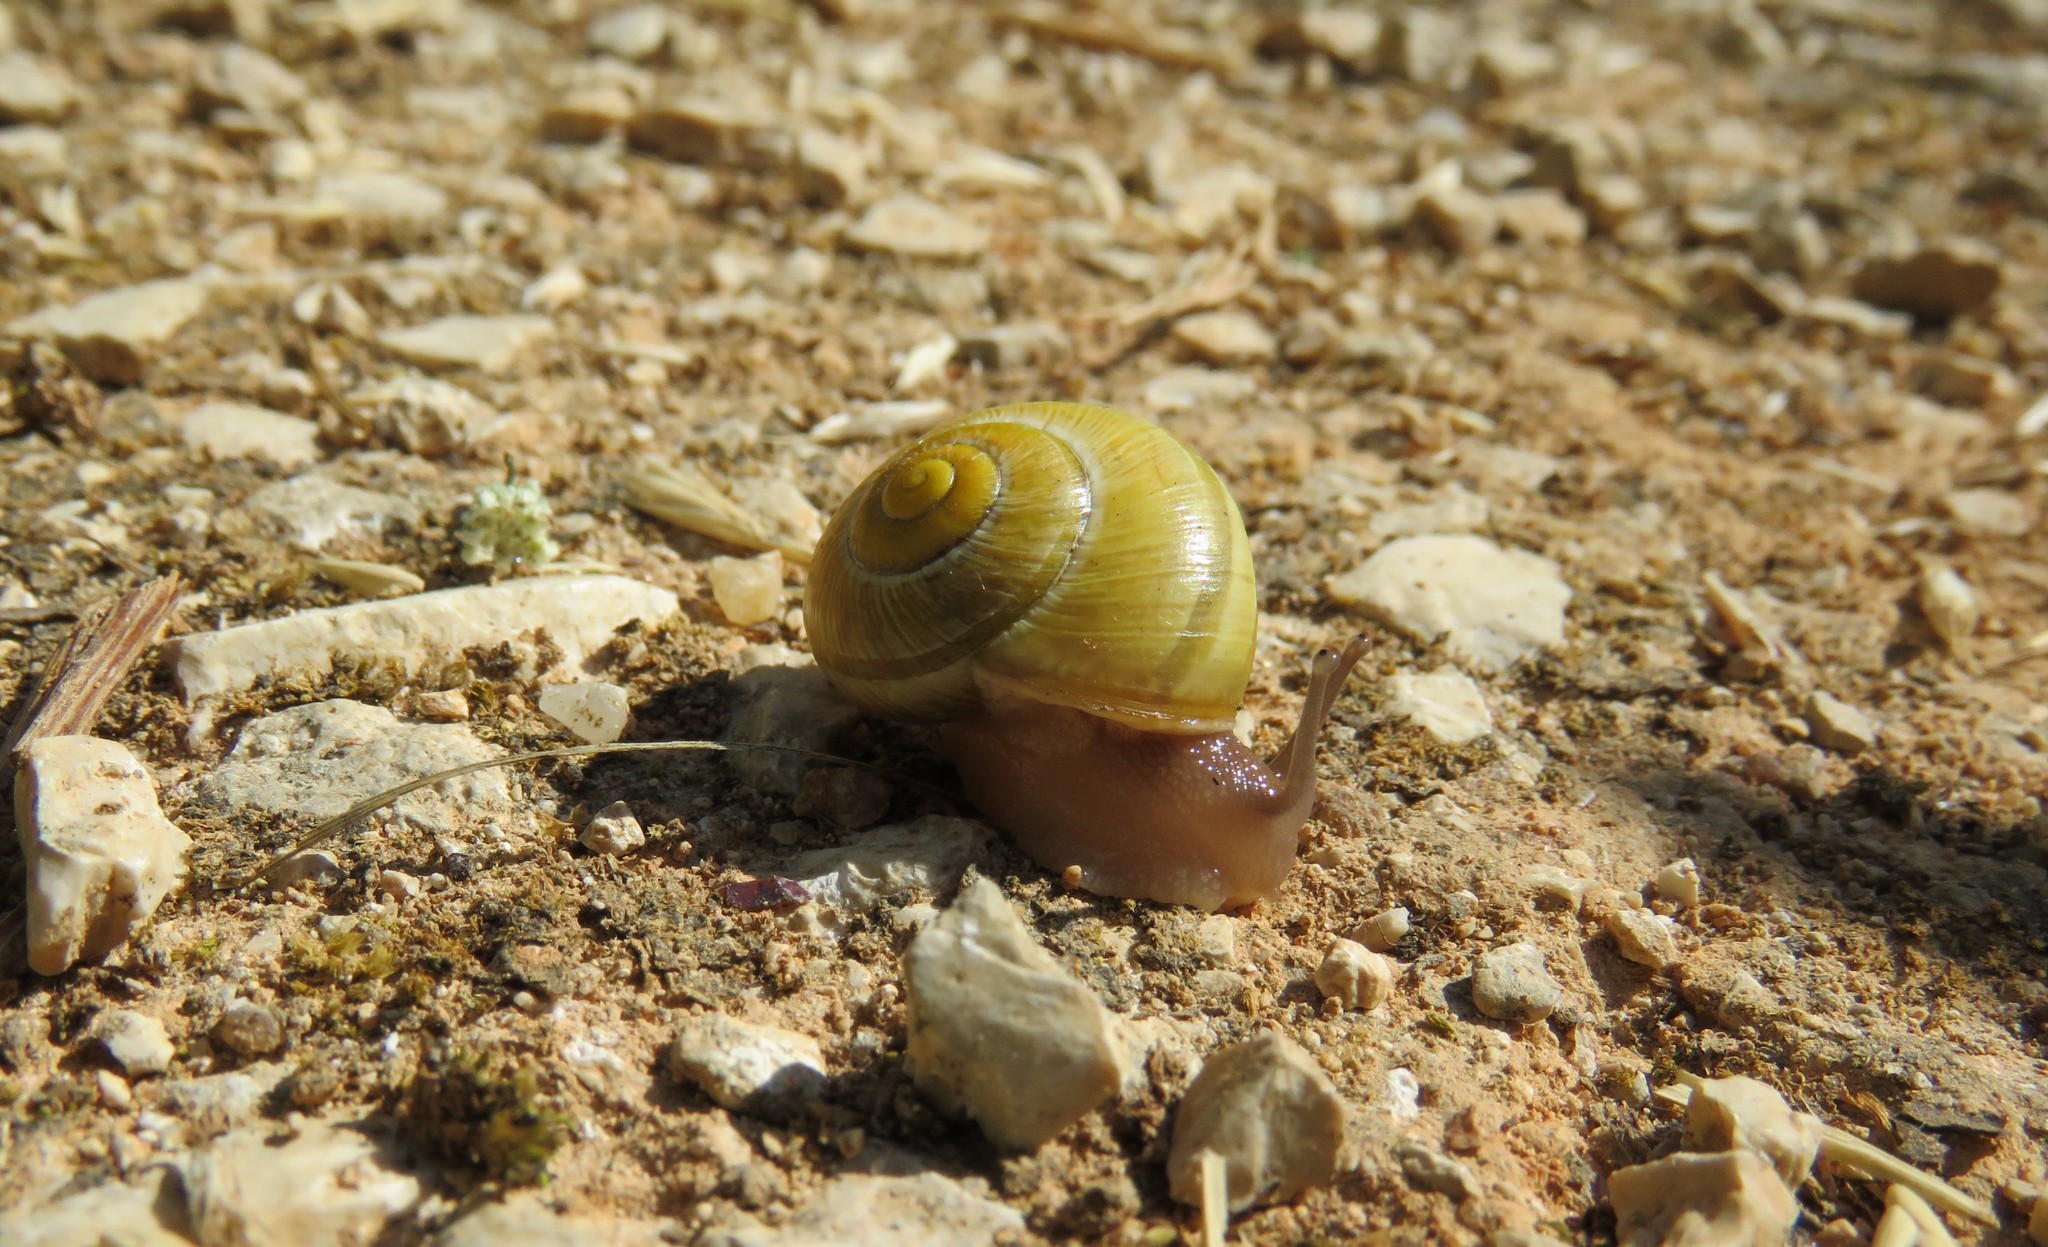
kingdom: Animalia
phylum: Mollusca
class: Gastropoda
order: Stylommatophora
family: Helicidae
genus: Cepaea
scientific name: Cepaea nemoralis
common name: Grovesnail
